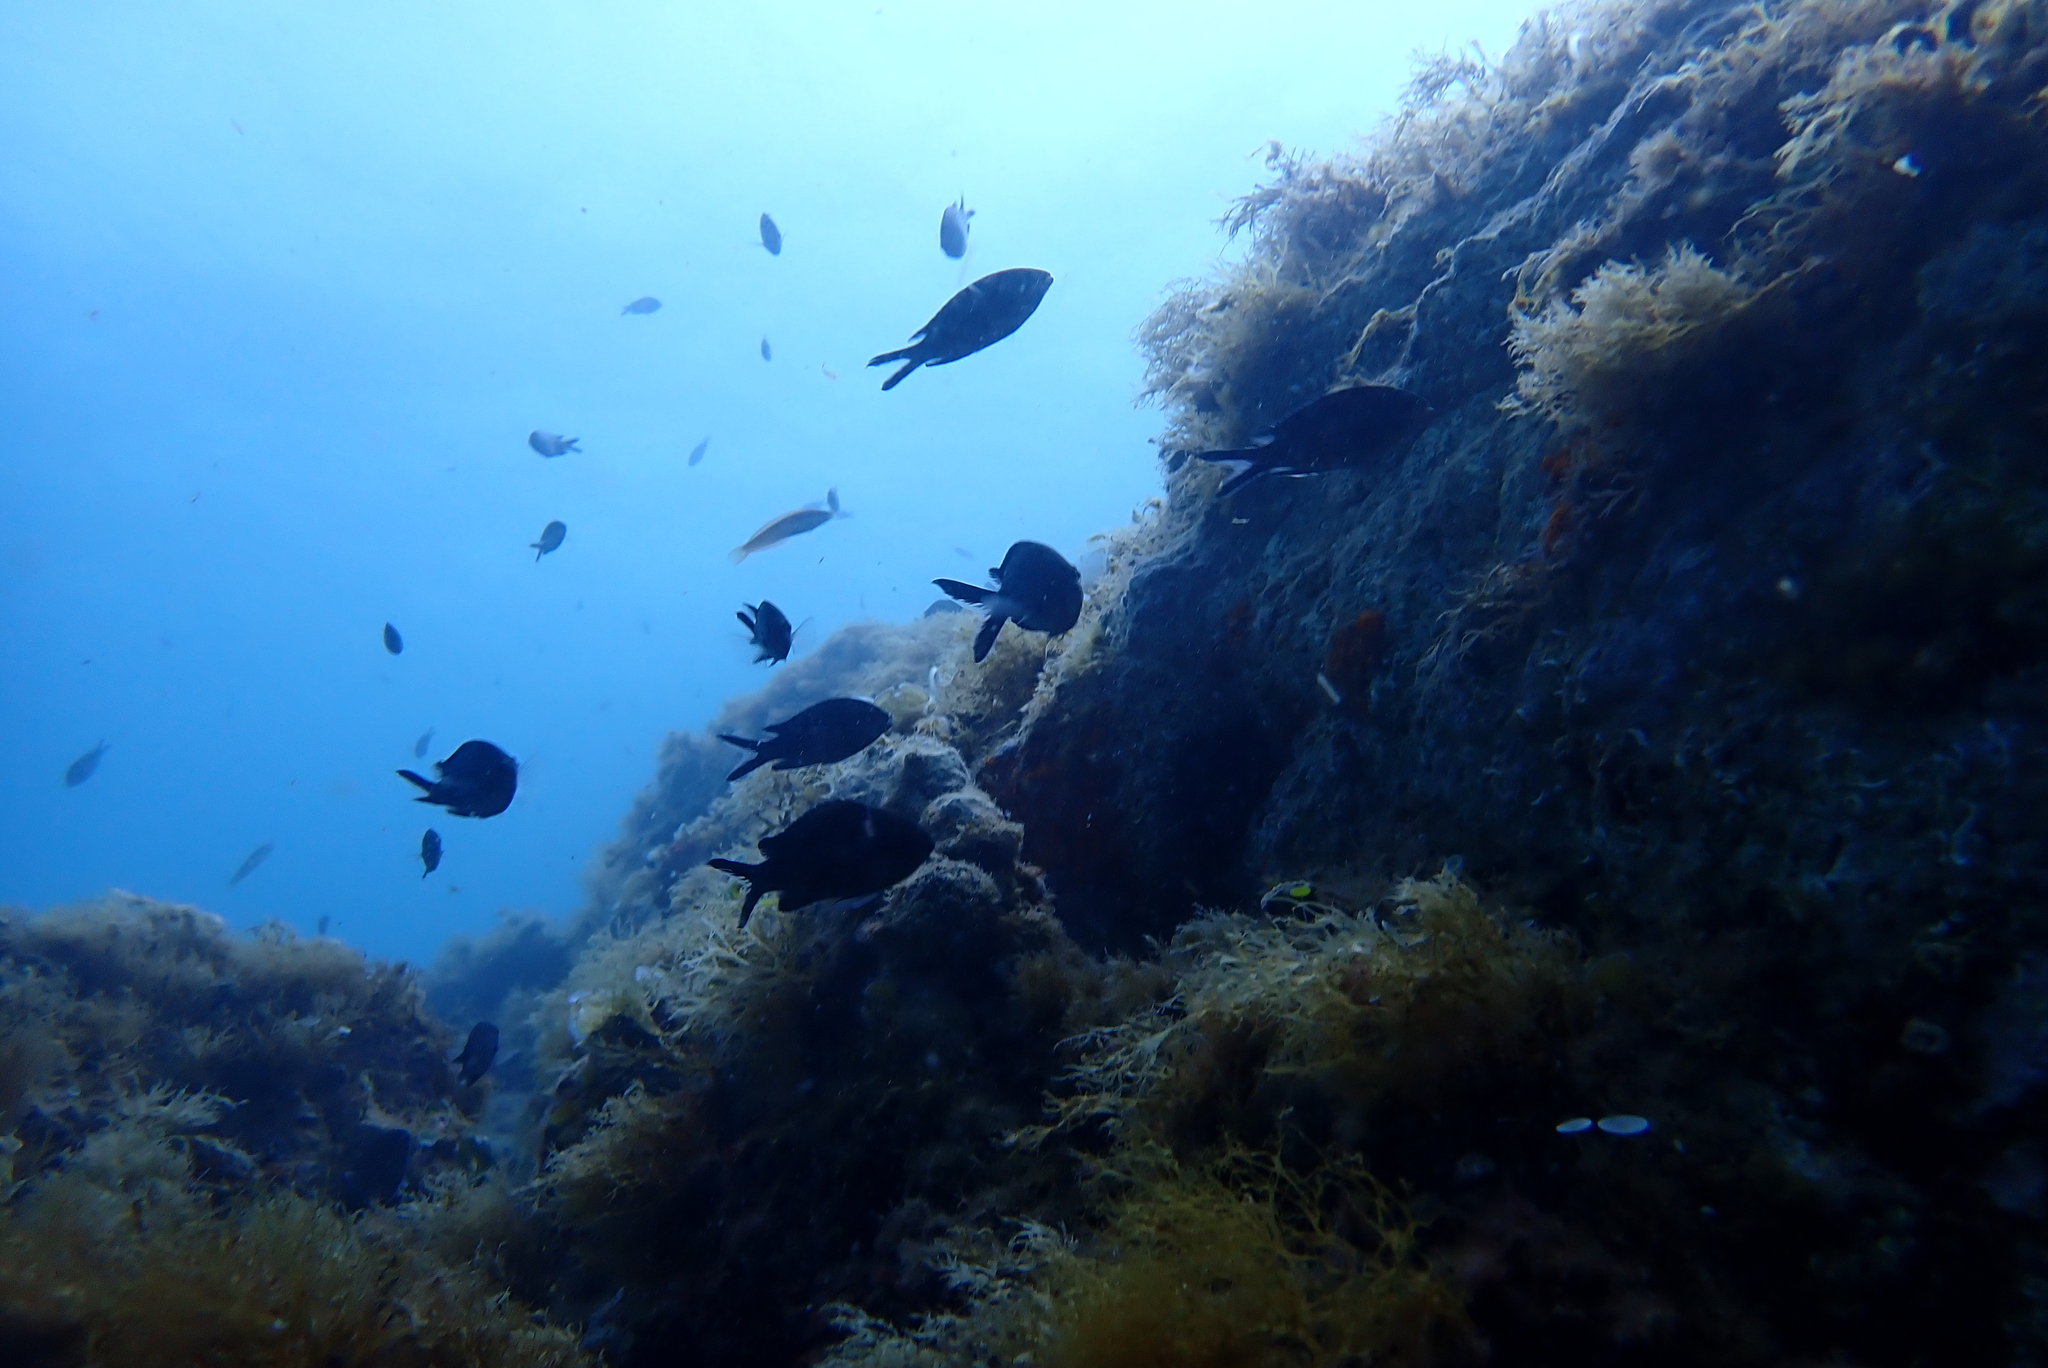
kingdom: Animalia
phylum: Chordata
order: Perciformes
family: Pomacentridae
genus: Chromis
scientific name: Chromis chromis
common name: Damselfish
